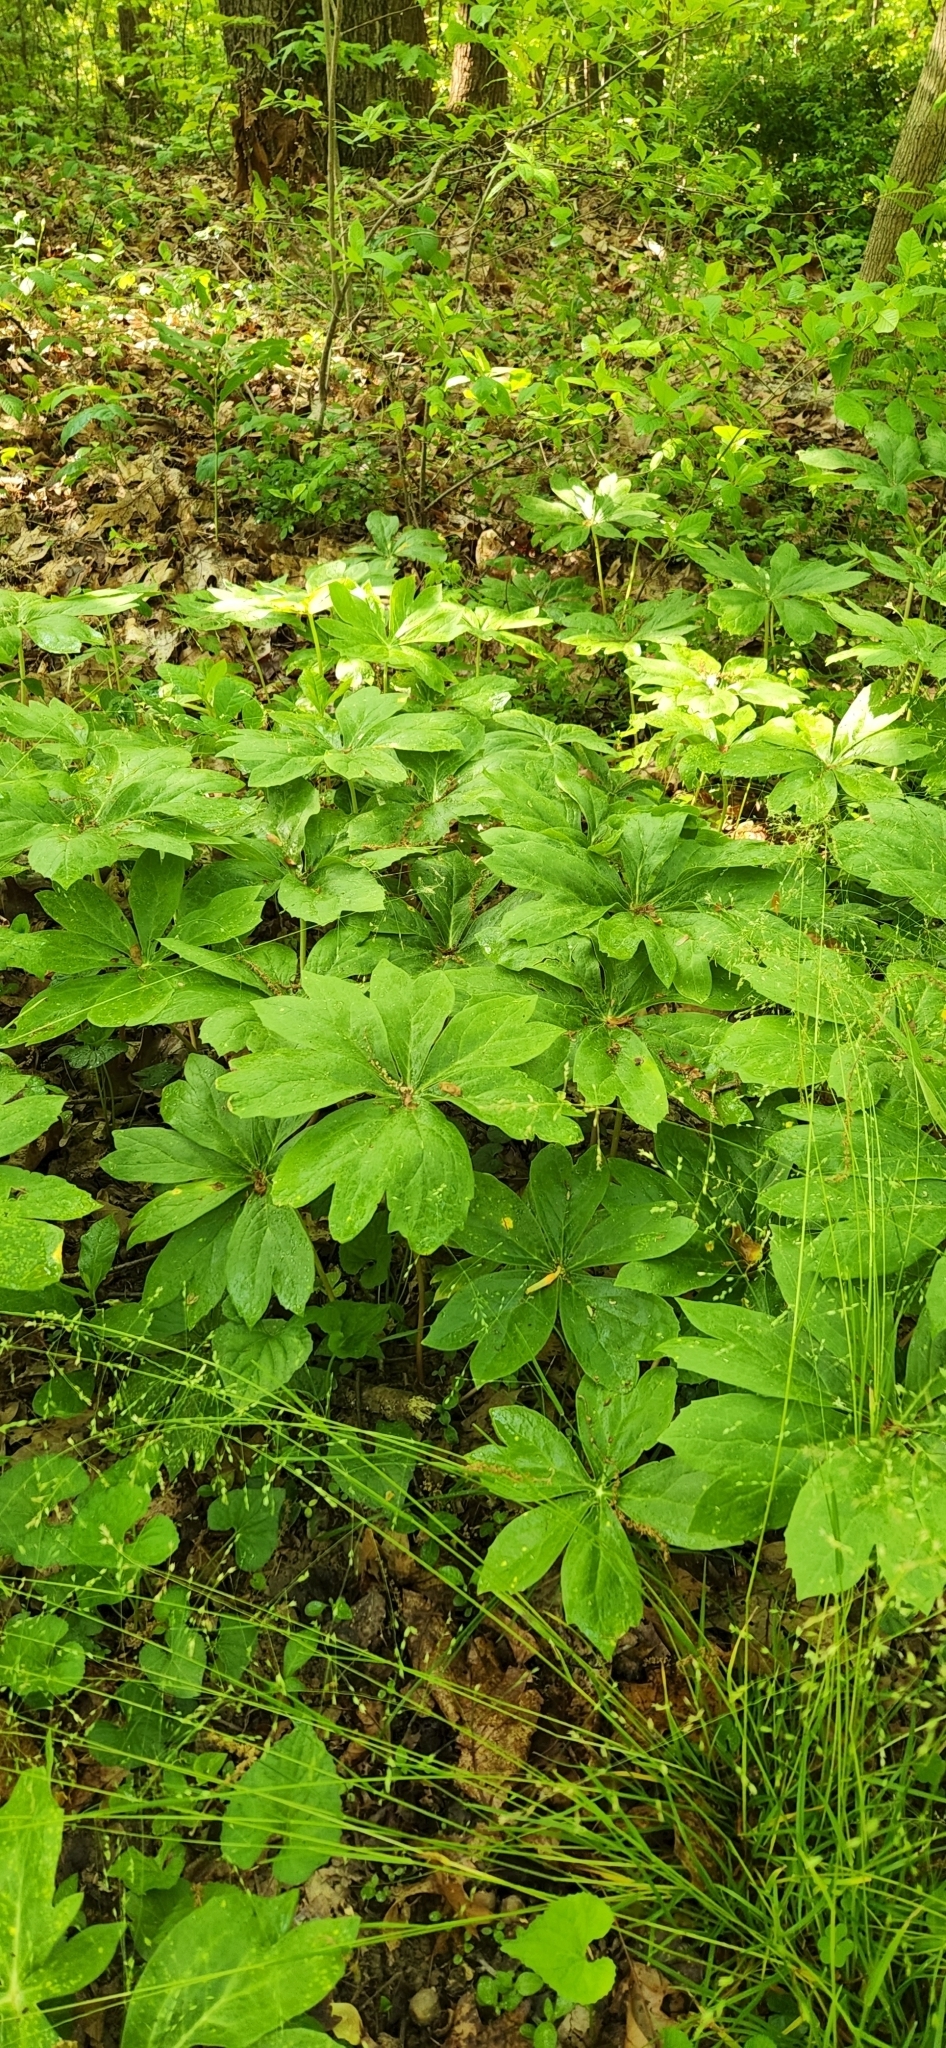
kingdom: Plantae
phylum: Tracheophyta
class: Magnoliopsida
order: Ranunculales
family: Berberidaceae
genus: Podophyllum
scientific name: Podophyllum peltatum
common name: Wild mandrake
